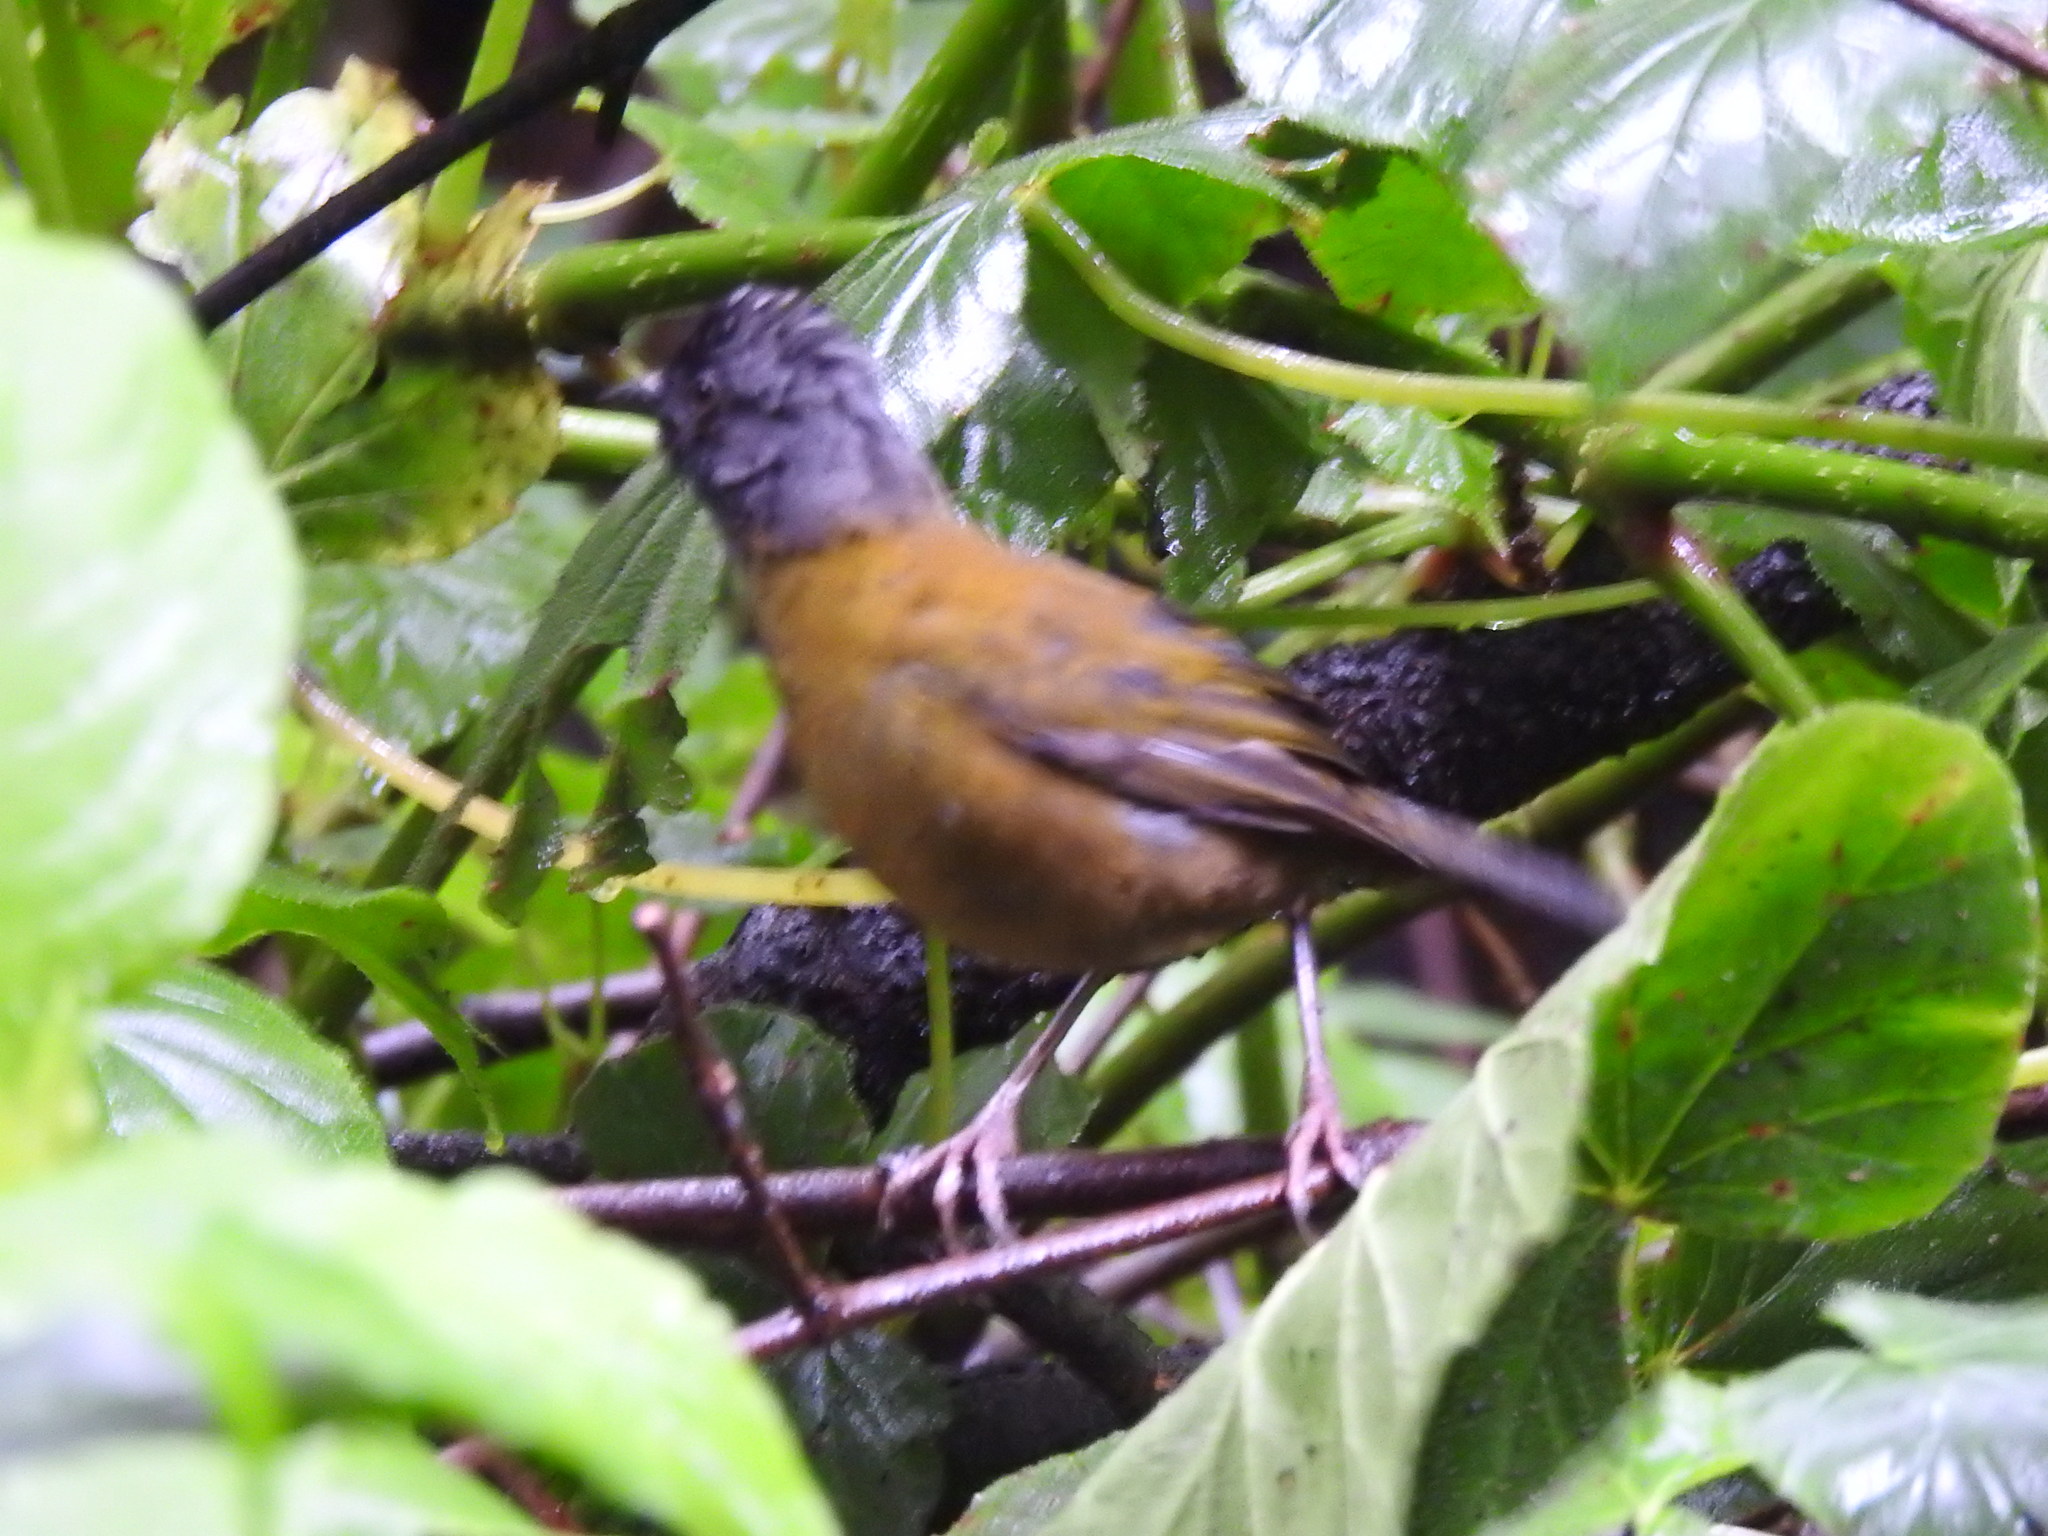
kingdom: Animalia
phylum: Chordata
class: Aves
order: Passeriformes
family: Passerellidae
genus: Pezopetes
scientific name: Pezopetes capitalis
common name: Large-footed finch
